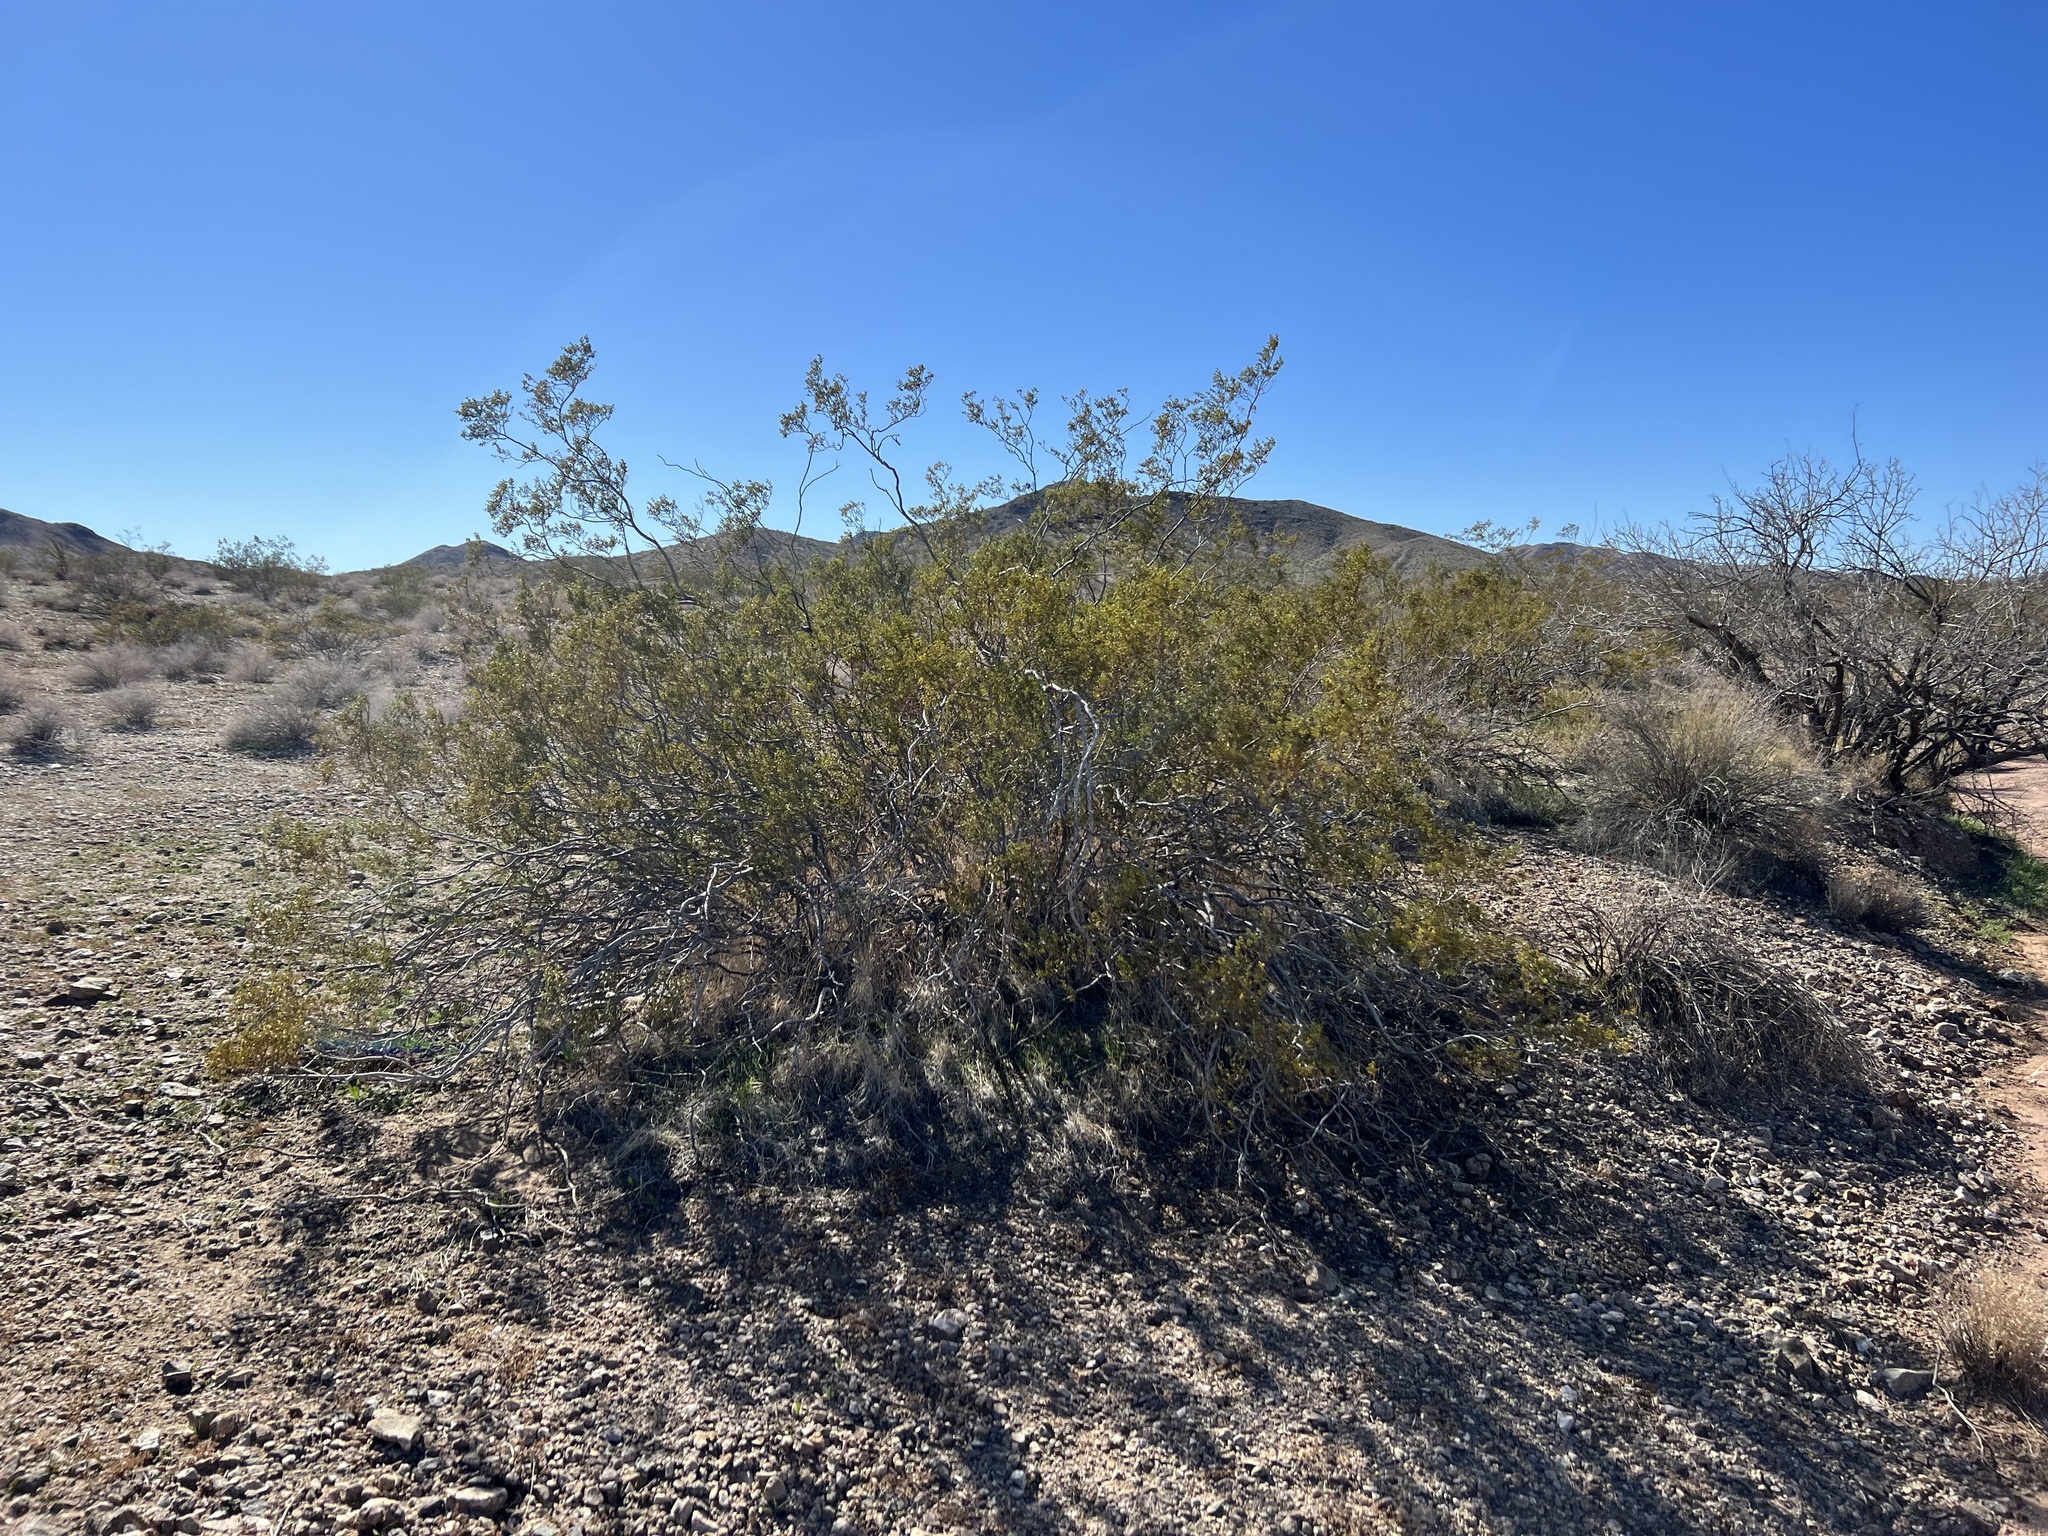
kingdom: Plantae
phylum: Tracheophyta
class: Magnoliopsida
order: Zygophyllales
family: Zygophyllaceae
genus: Larrea
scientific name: Larrea tridentata
